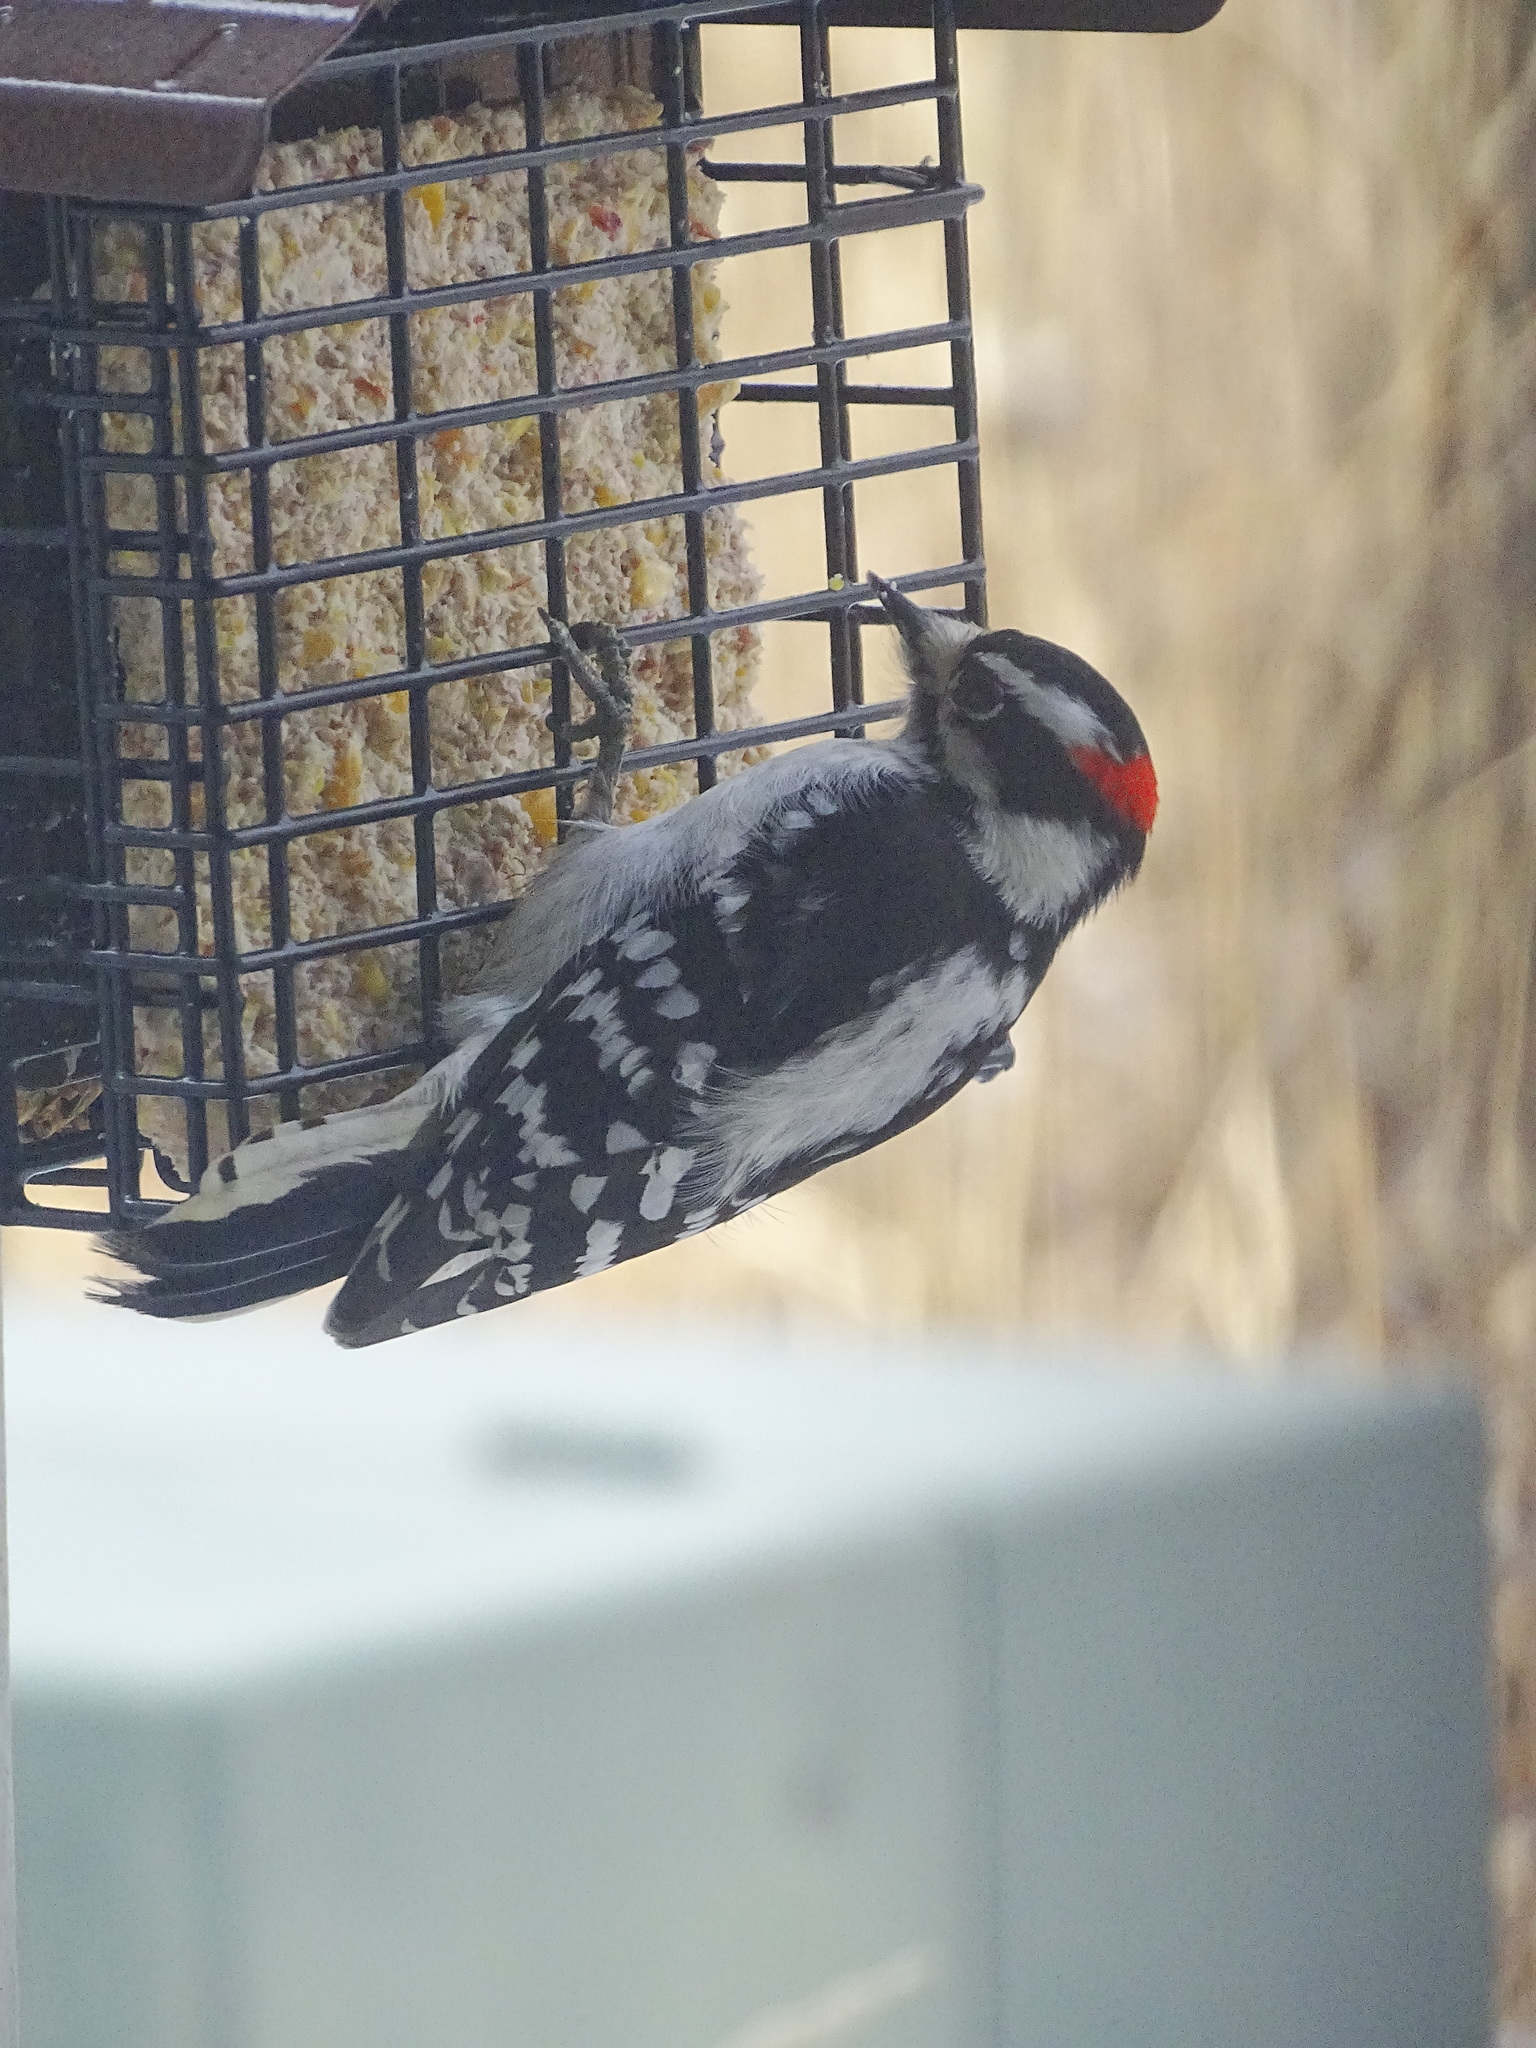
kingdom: Animalia
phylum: Chordata
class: Aves
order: Piciformes
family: Picidae
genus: Dryobates
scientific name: Dryobates pubescens
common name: Downy woodpecker
